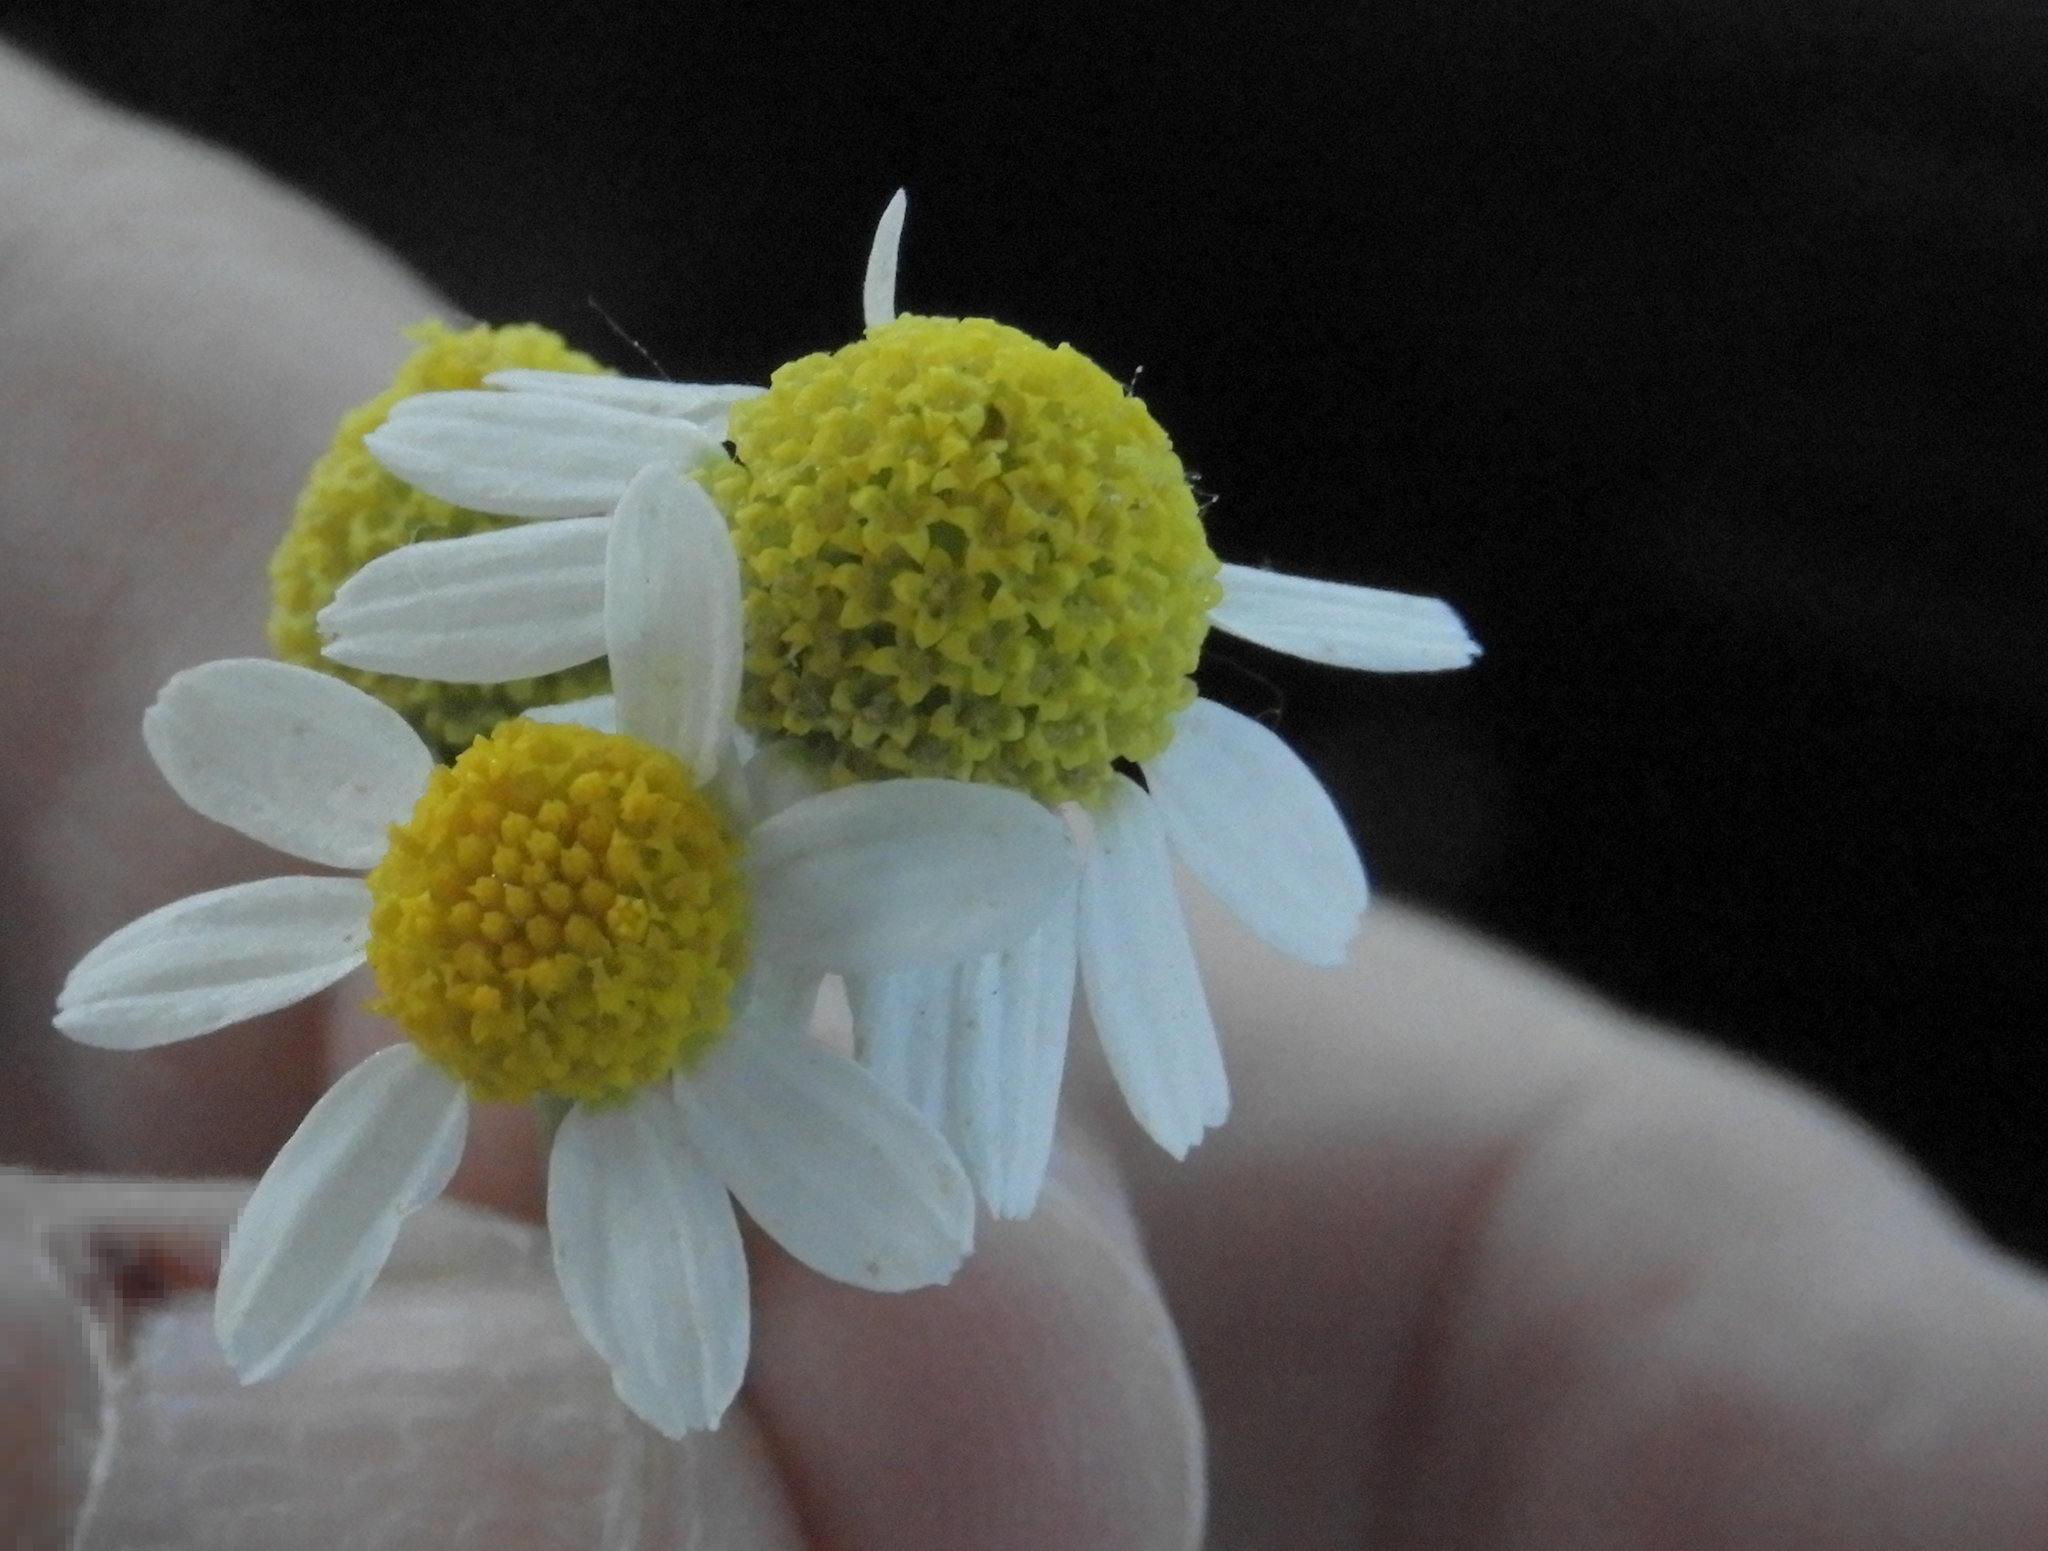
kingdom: Plantae
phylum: Tracheophyta
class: Magnoliopsida
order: Asterales
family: Asteraceae
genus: Anthemis
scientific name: Anthemis cotula
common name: Stinking chamomile
